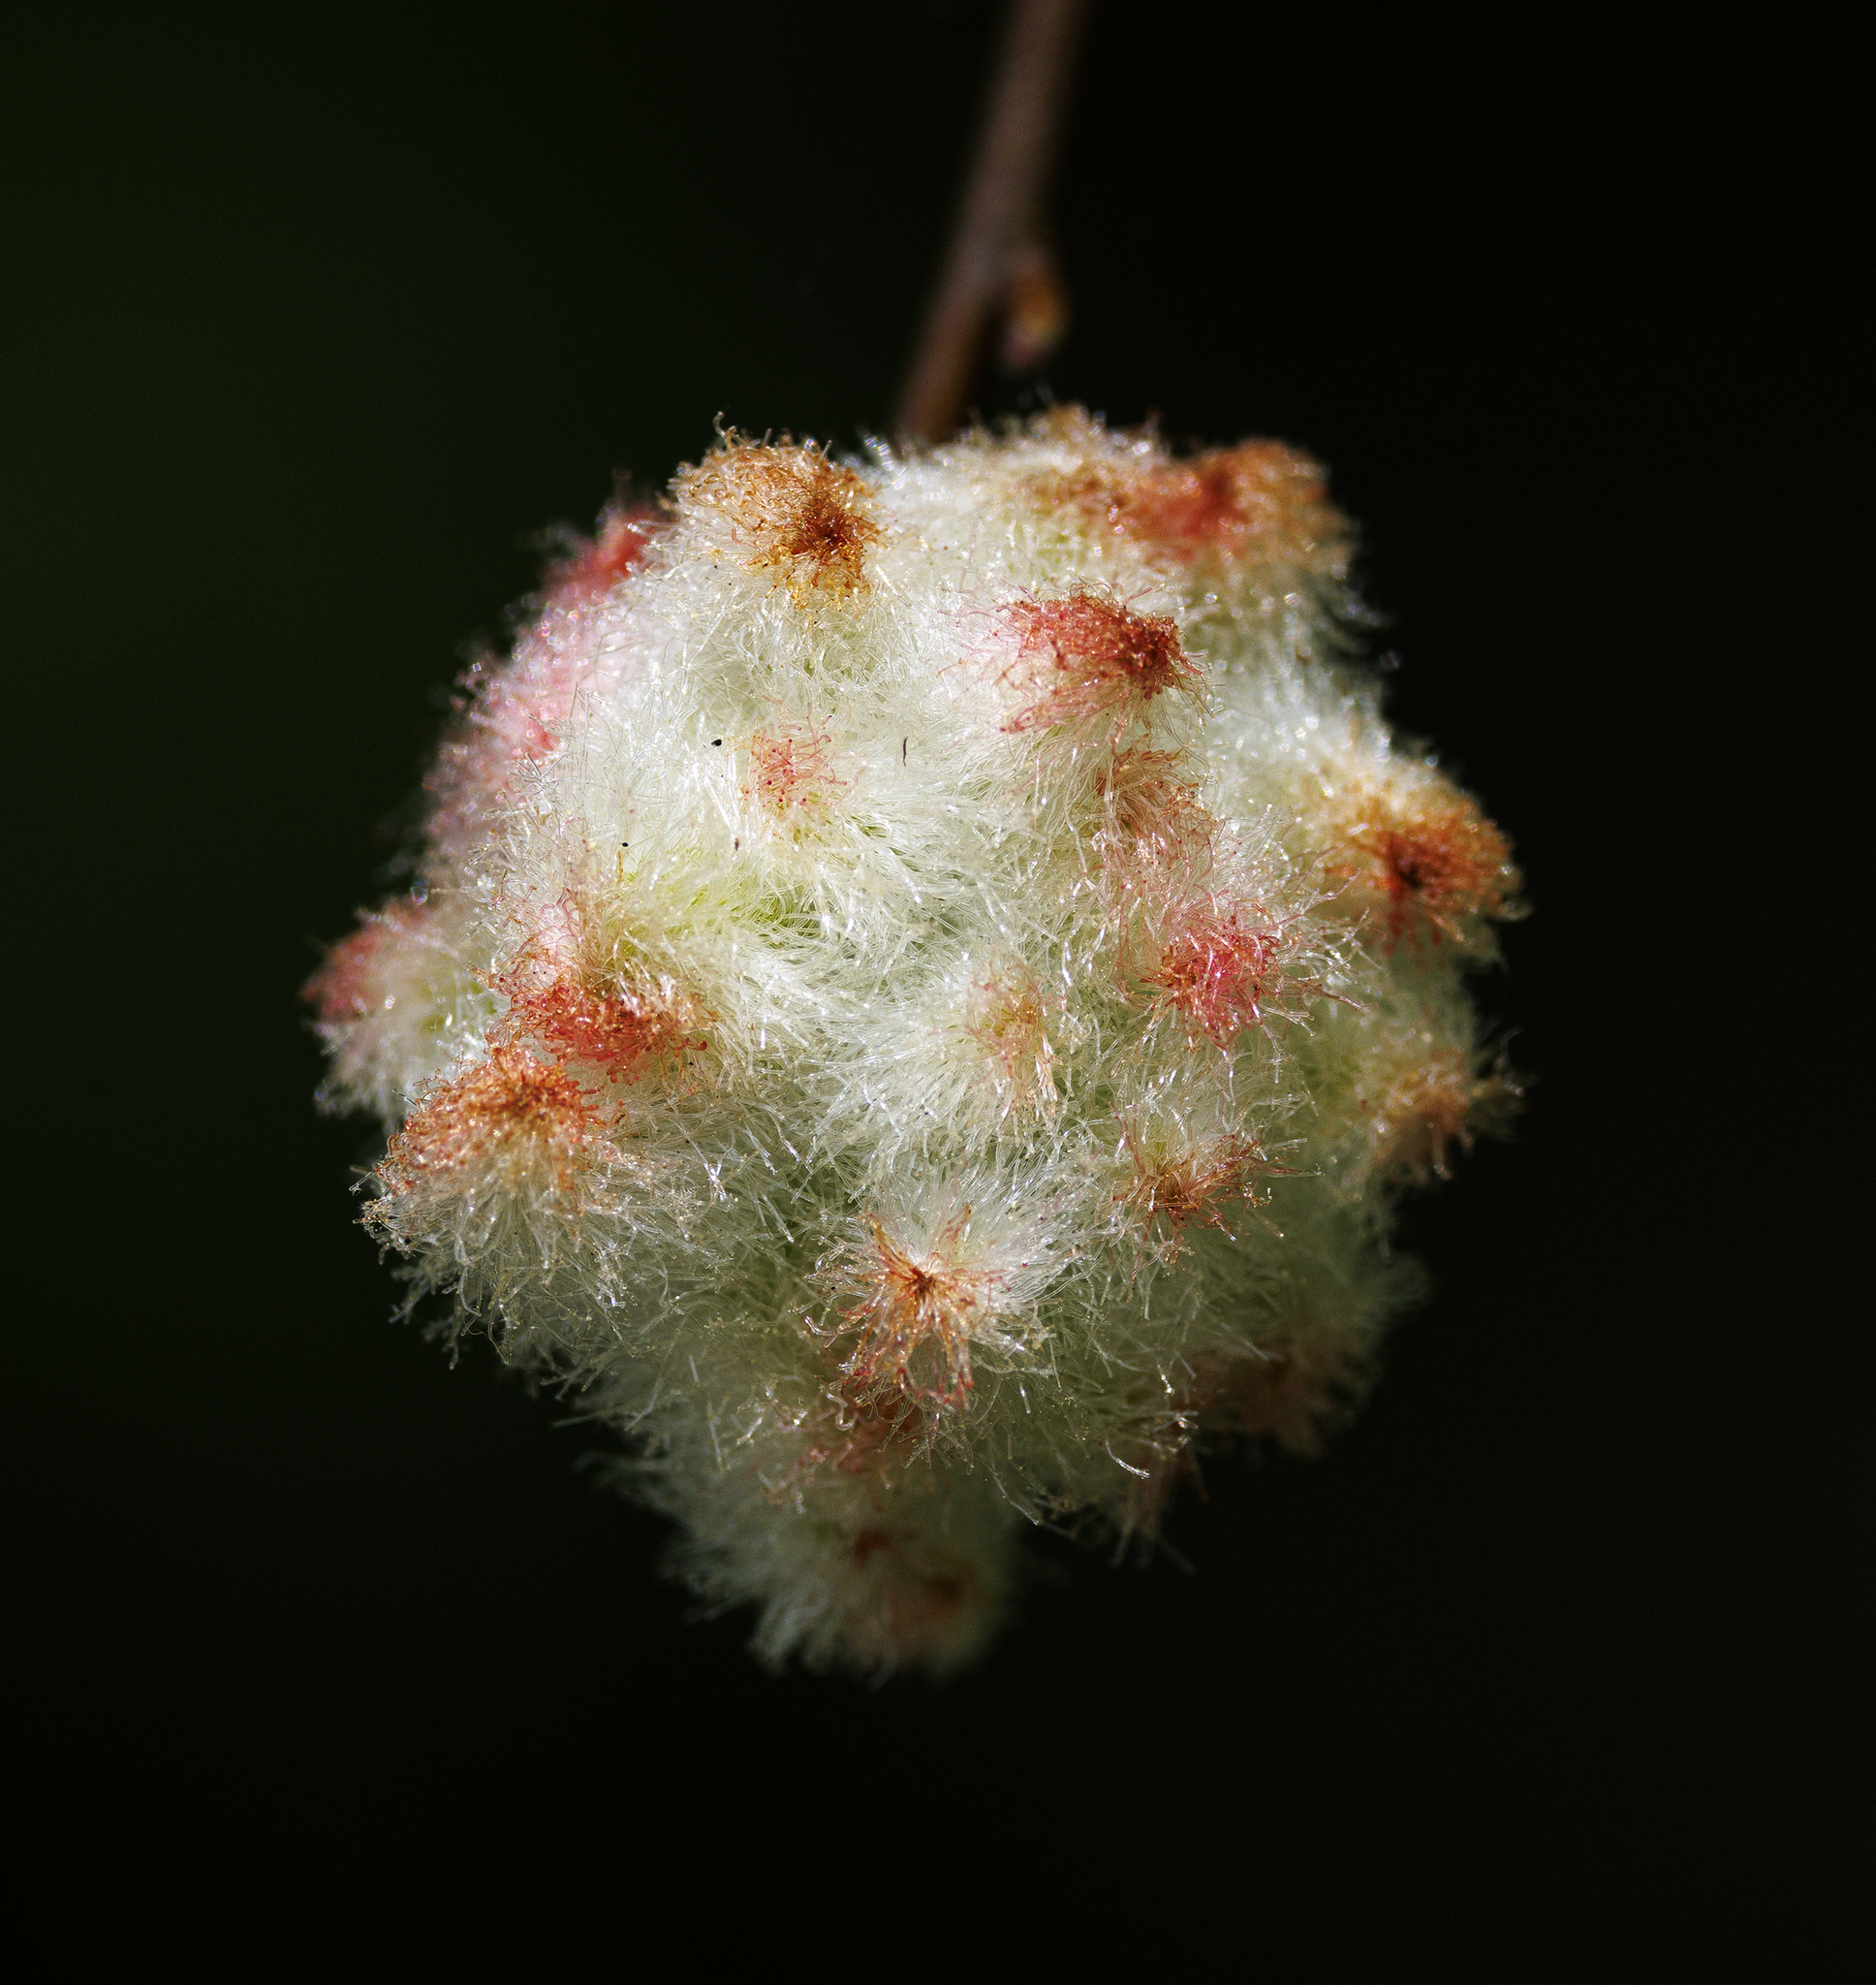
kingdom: Animalia
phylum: Arthropoda
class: Insecta
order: Hymenoptera
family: Cynipidae
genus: Callirhytis
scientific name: Callirhytis
